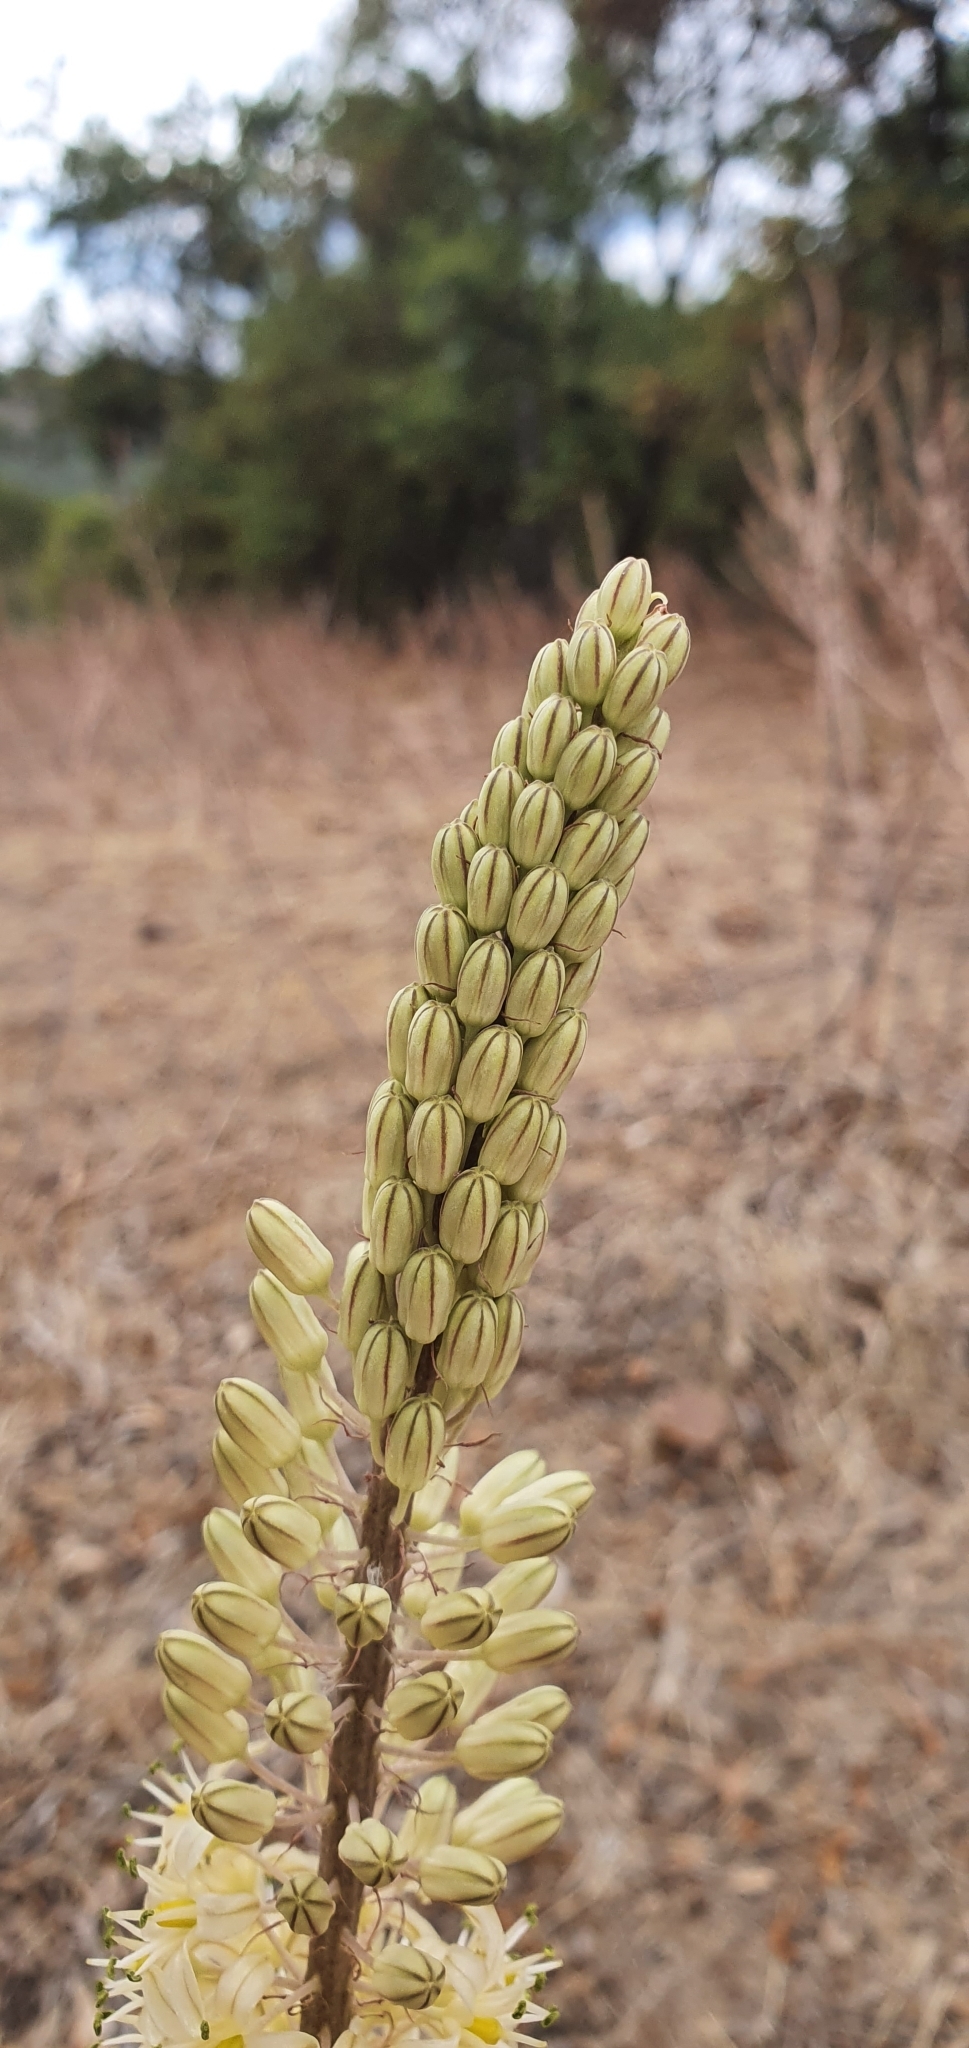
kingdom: Plantae
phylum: Tracheophyta
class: Liliopsida
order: Asparagales
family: Asparagaceae
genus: Drimia
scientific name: Drimia anthericoides
